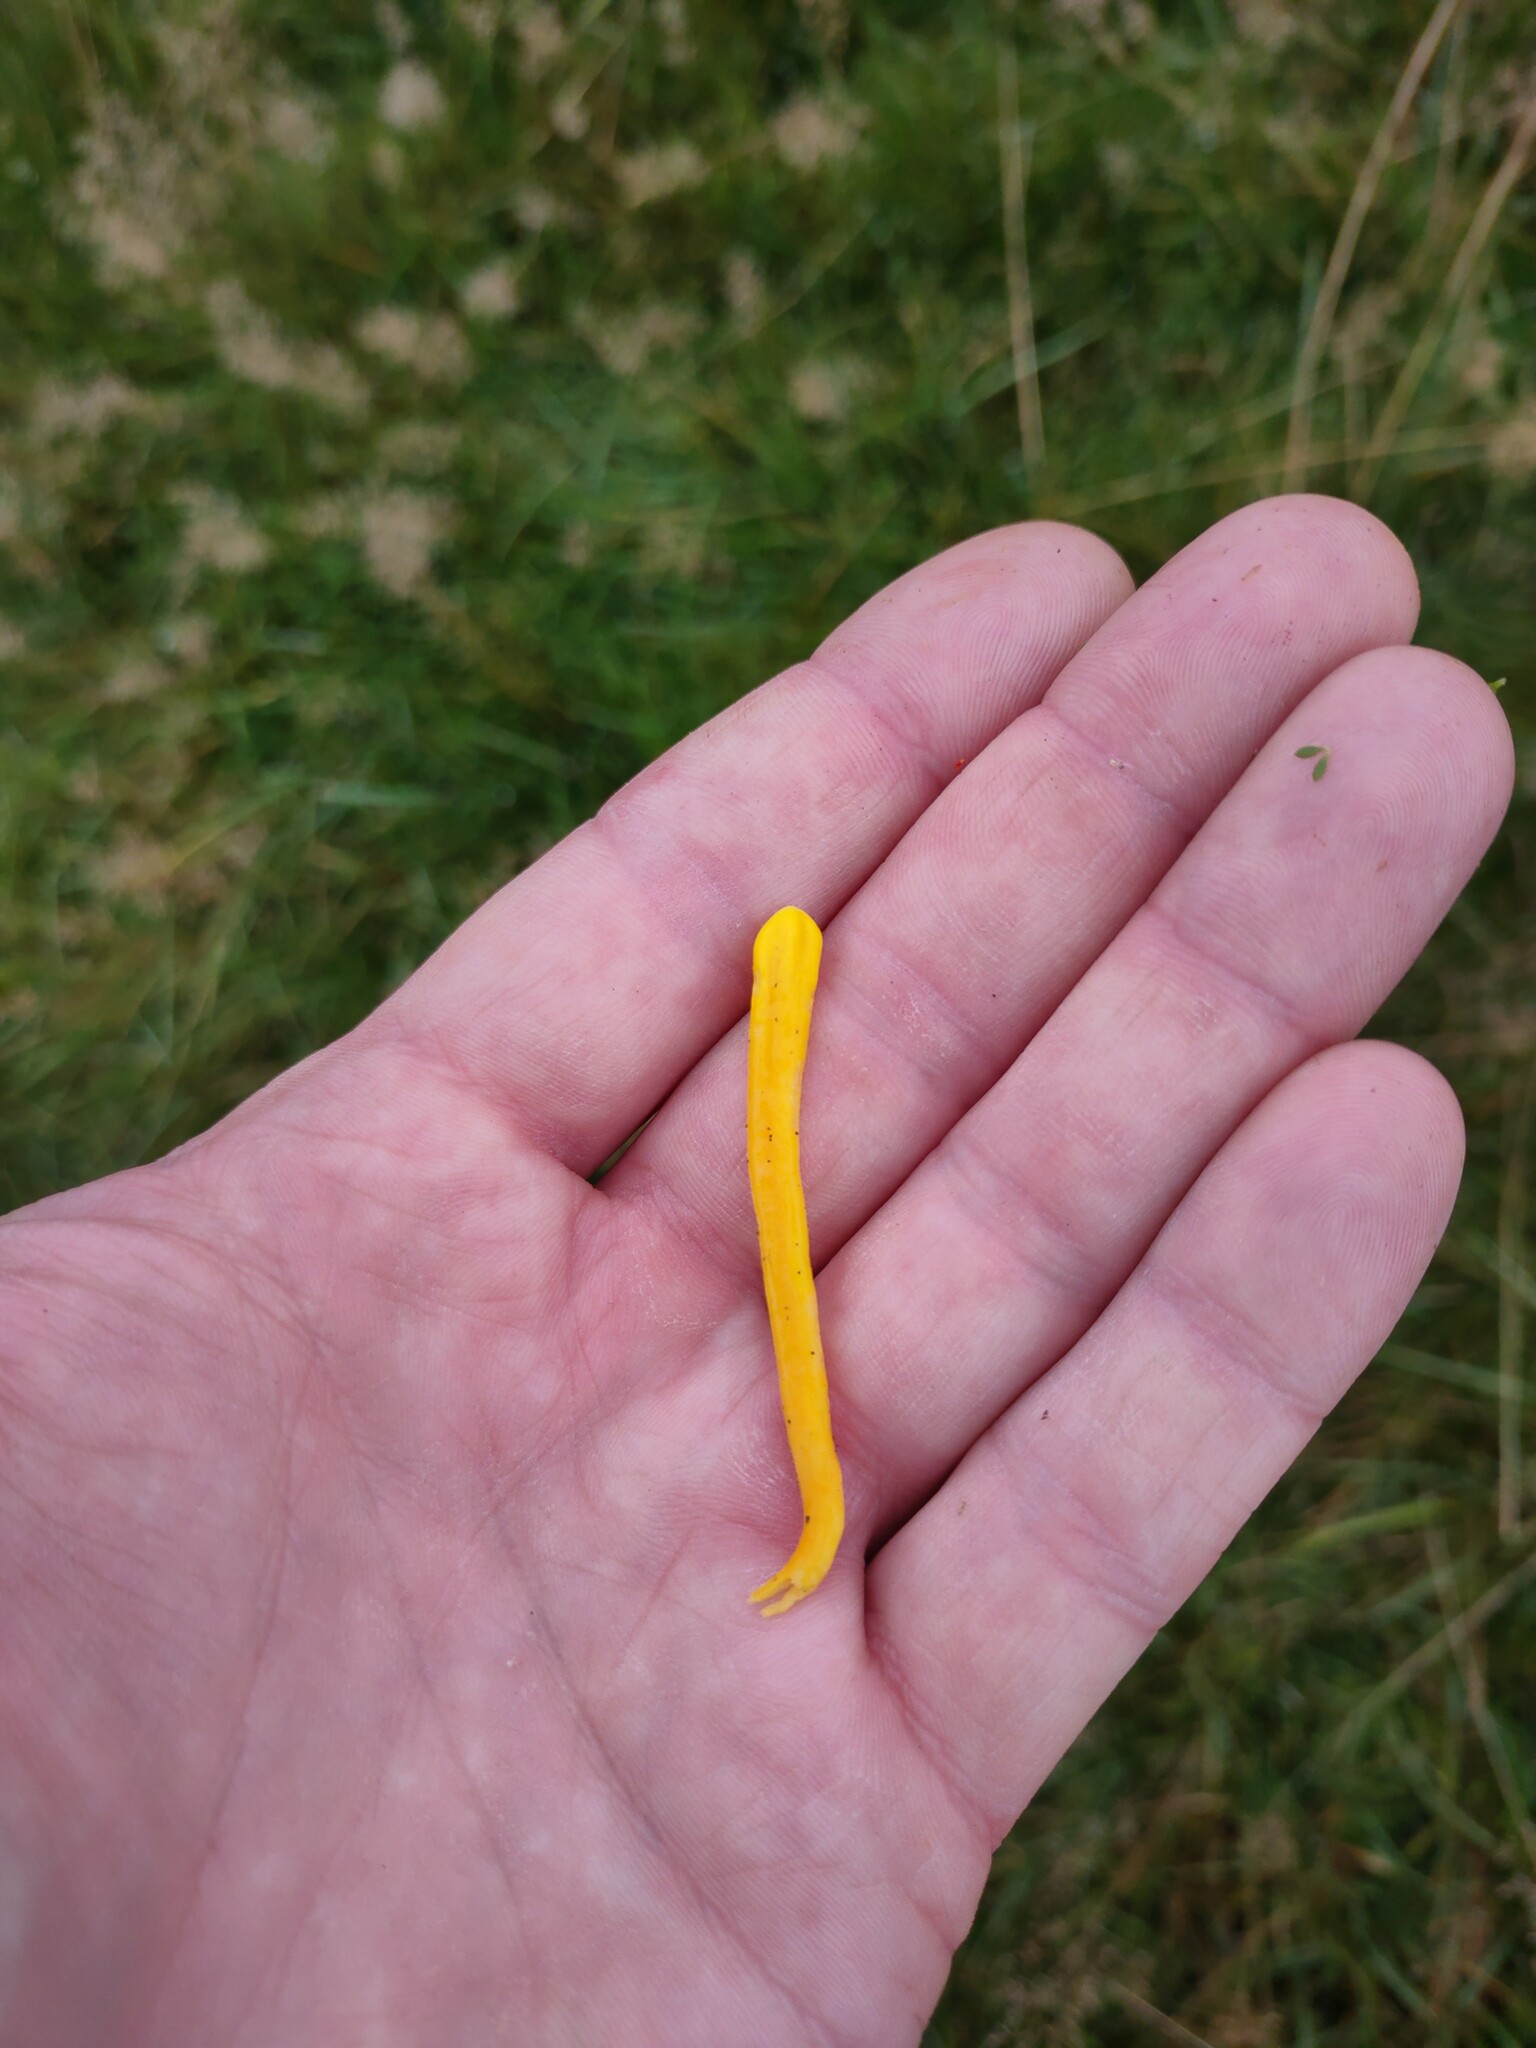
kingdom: Fungi
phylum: Basidiomycota
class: Agaricomycetes
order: Agaricales
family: Clavariaceae
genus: Clavulinopsis
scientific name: Clavulinopsis helvola
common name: Yellow club
